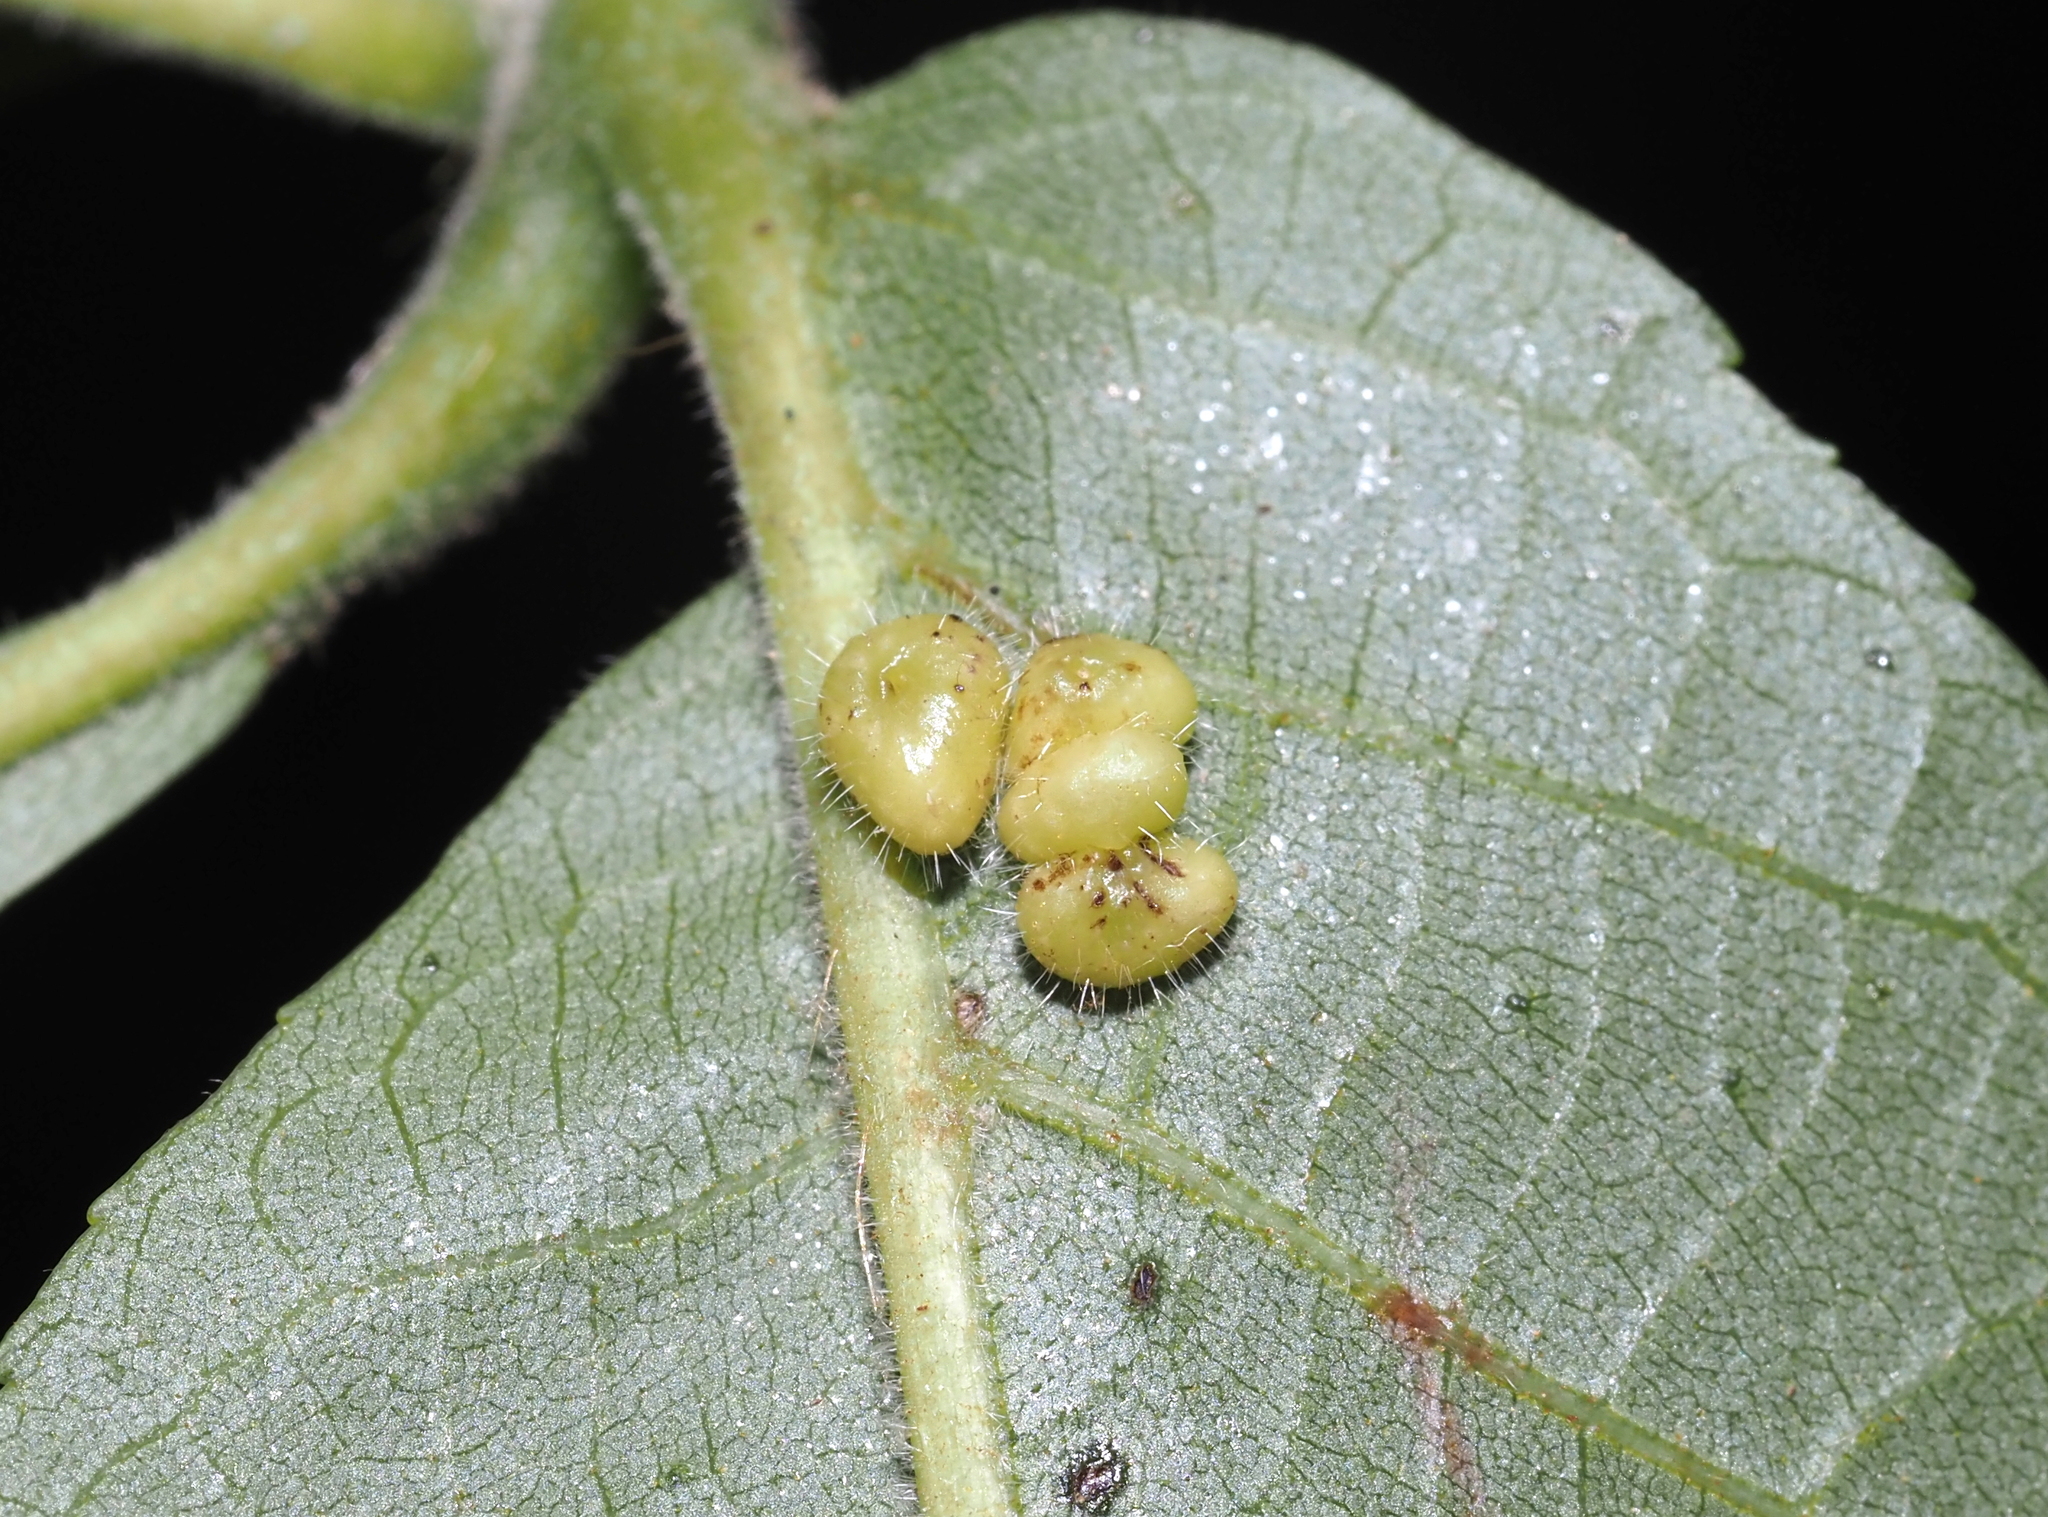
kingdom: Animalia
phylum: Arthropoda
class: Insecta
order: Diptera
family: Cecidomyiidae
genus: Caryomyia
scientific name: Caryomyia thompsoni
